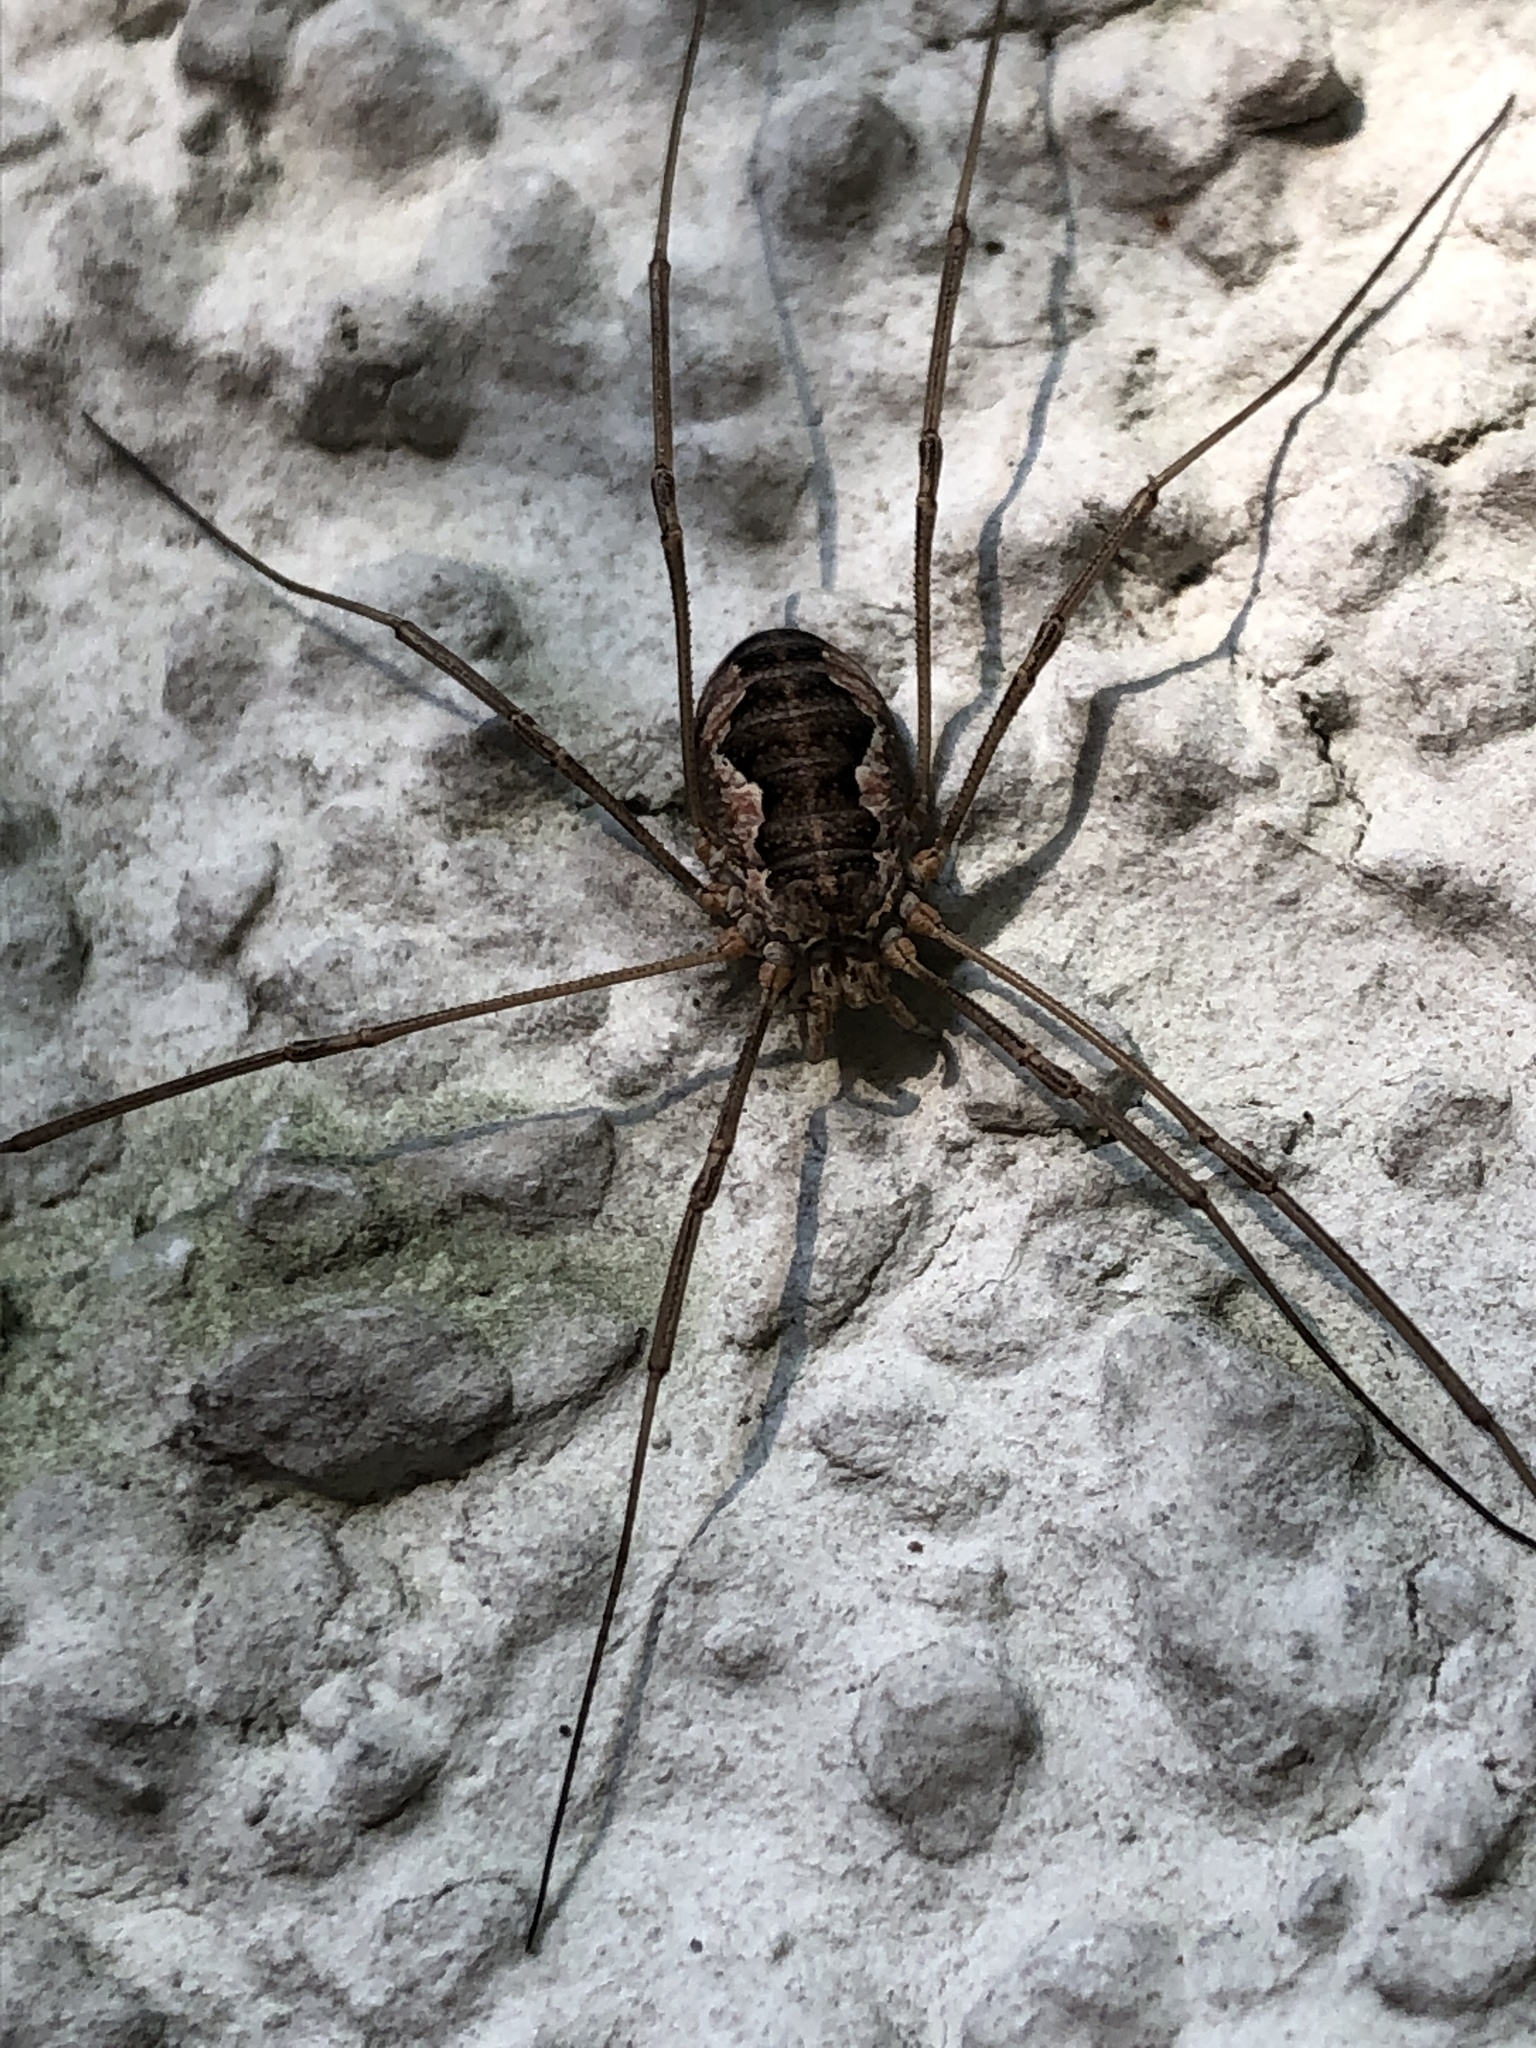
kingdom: Animalia
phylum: Arthropoda
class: Arachnida
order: Opiliones
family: Phalangiidae
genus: Phalangium
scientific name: Phalangium opilio
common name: Daddy longleg
